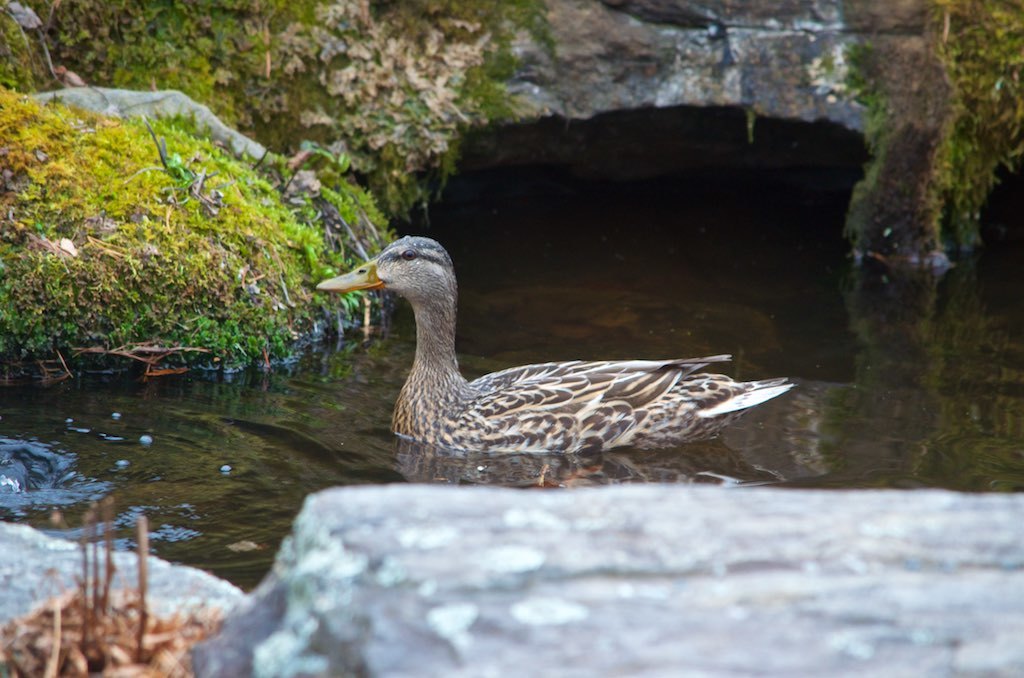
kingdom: Animalia
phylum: Chordata
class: Aves
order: Anseriformes
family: Anatidae
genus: Anas
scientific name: Anas platyrhynchos
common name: Mallard
